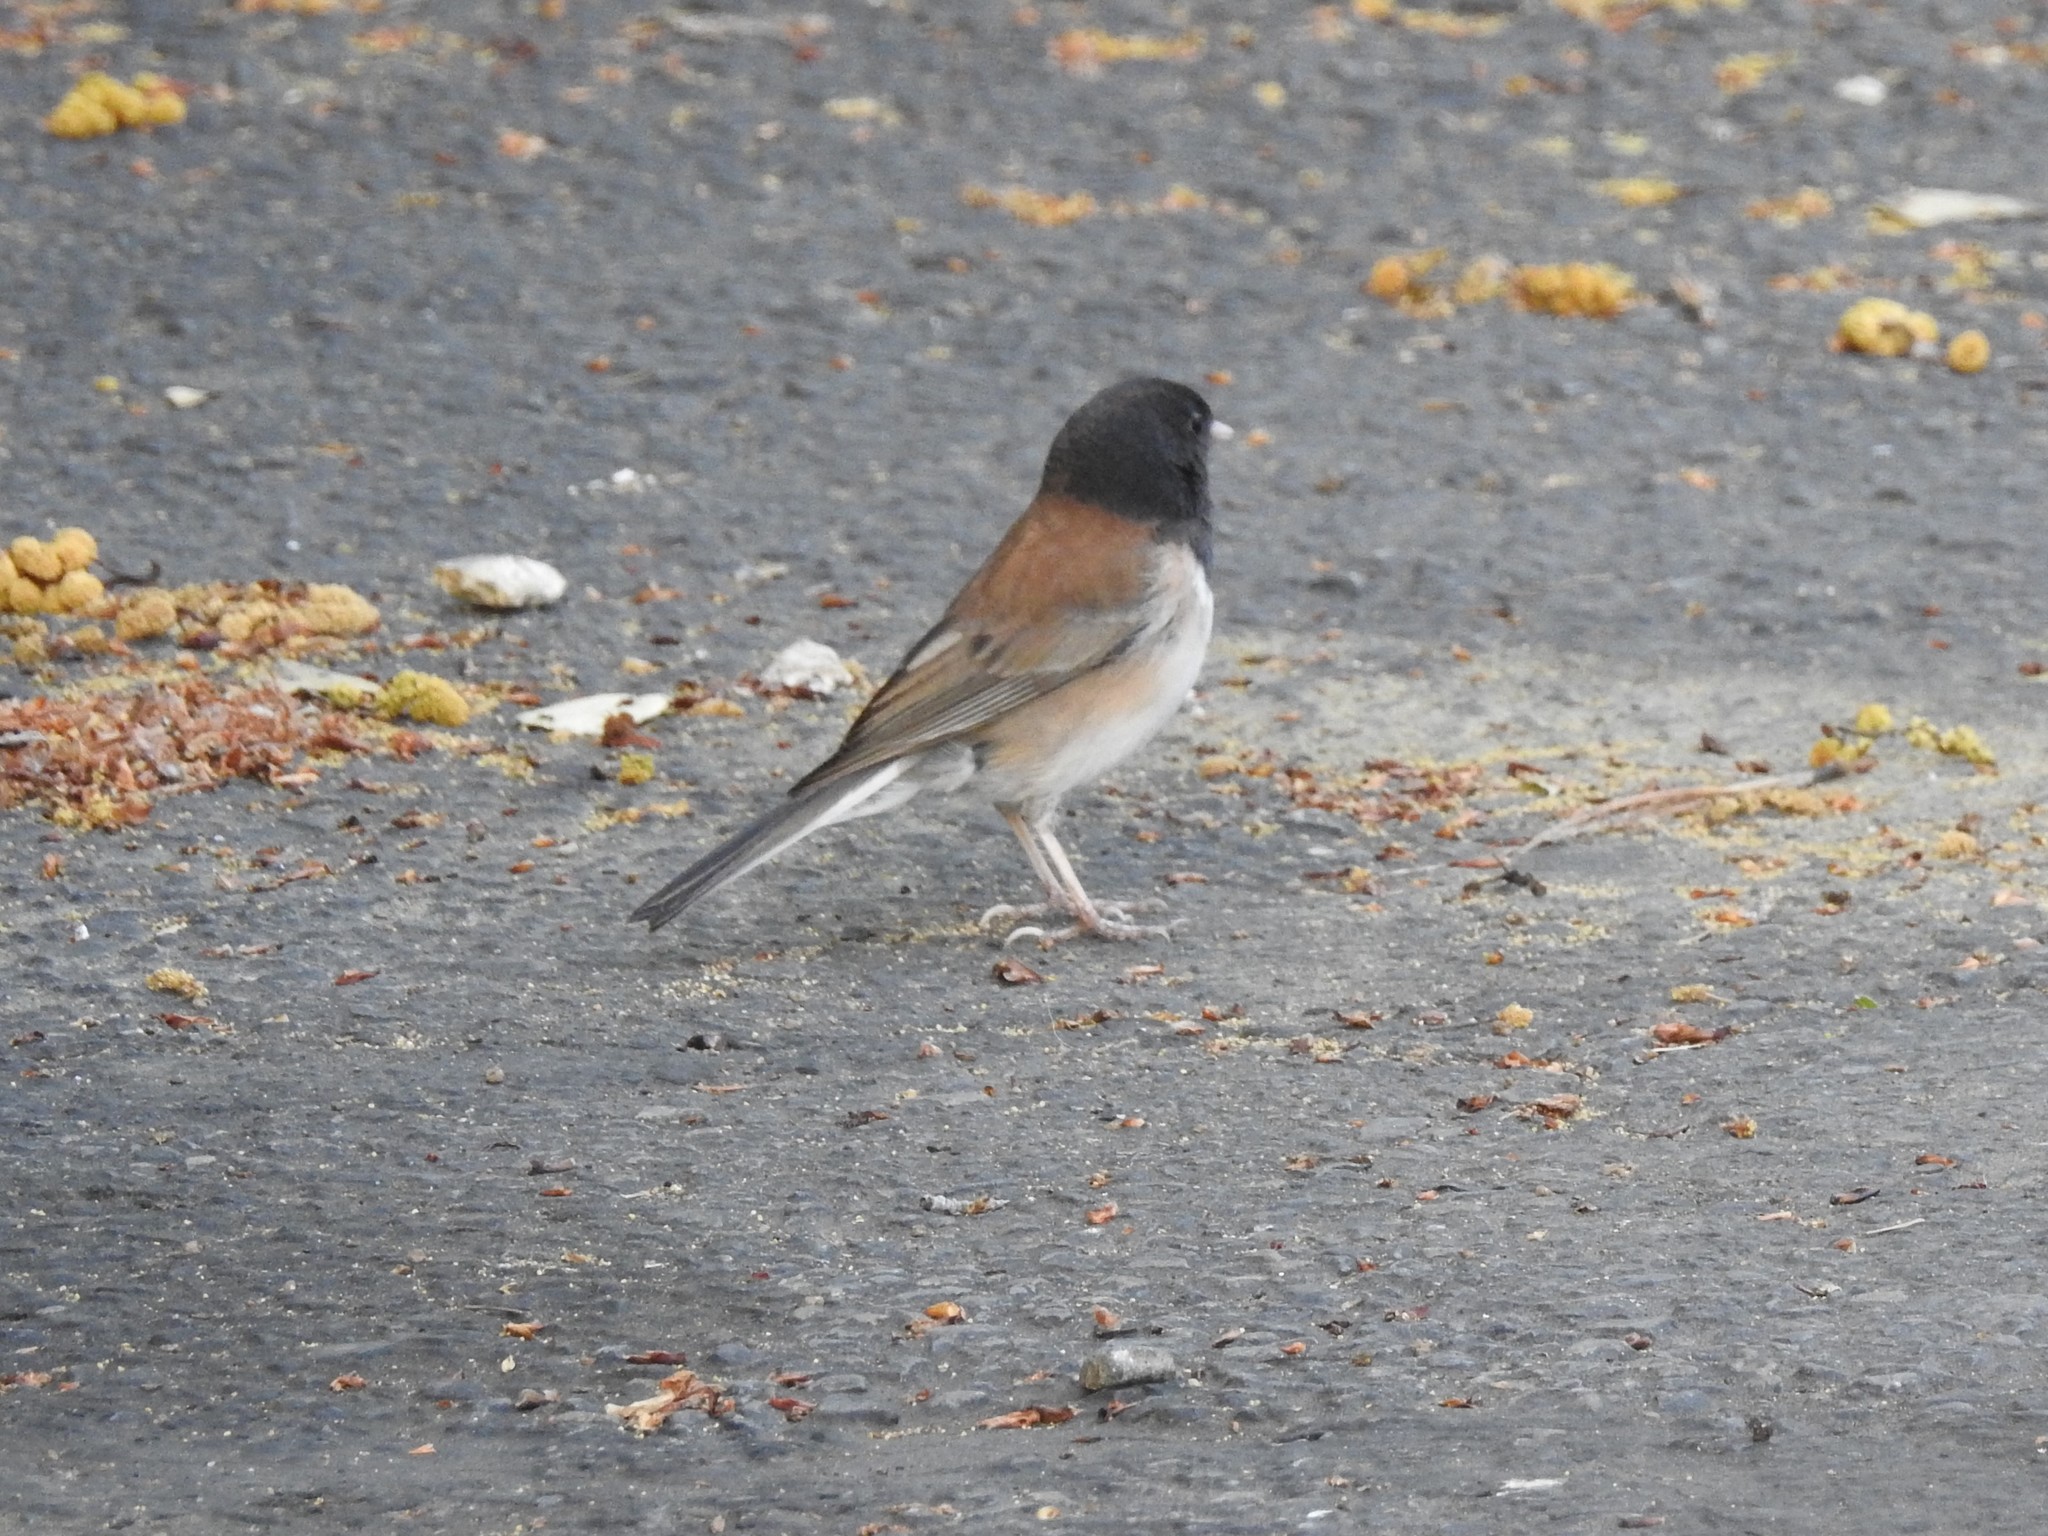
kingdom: Animalia
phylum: Chordata
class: Aves
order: Passeriformes
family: Passerellidae
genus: Junco
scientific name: Junco hyemalis
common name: Dark-eyed junco
